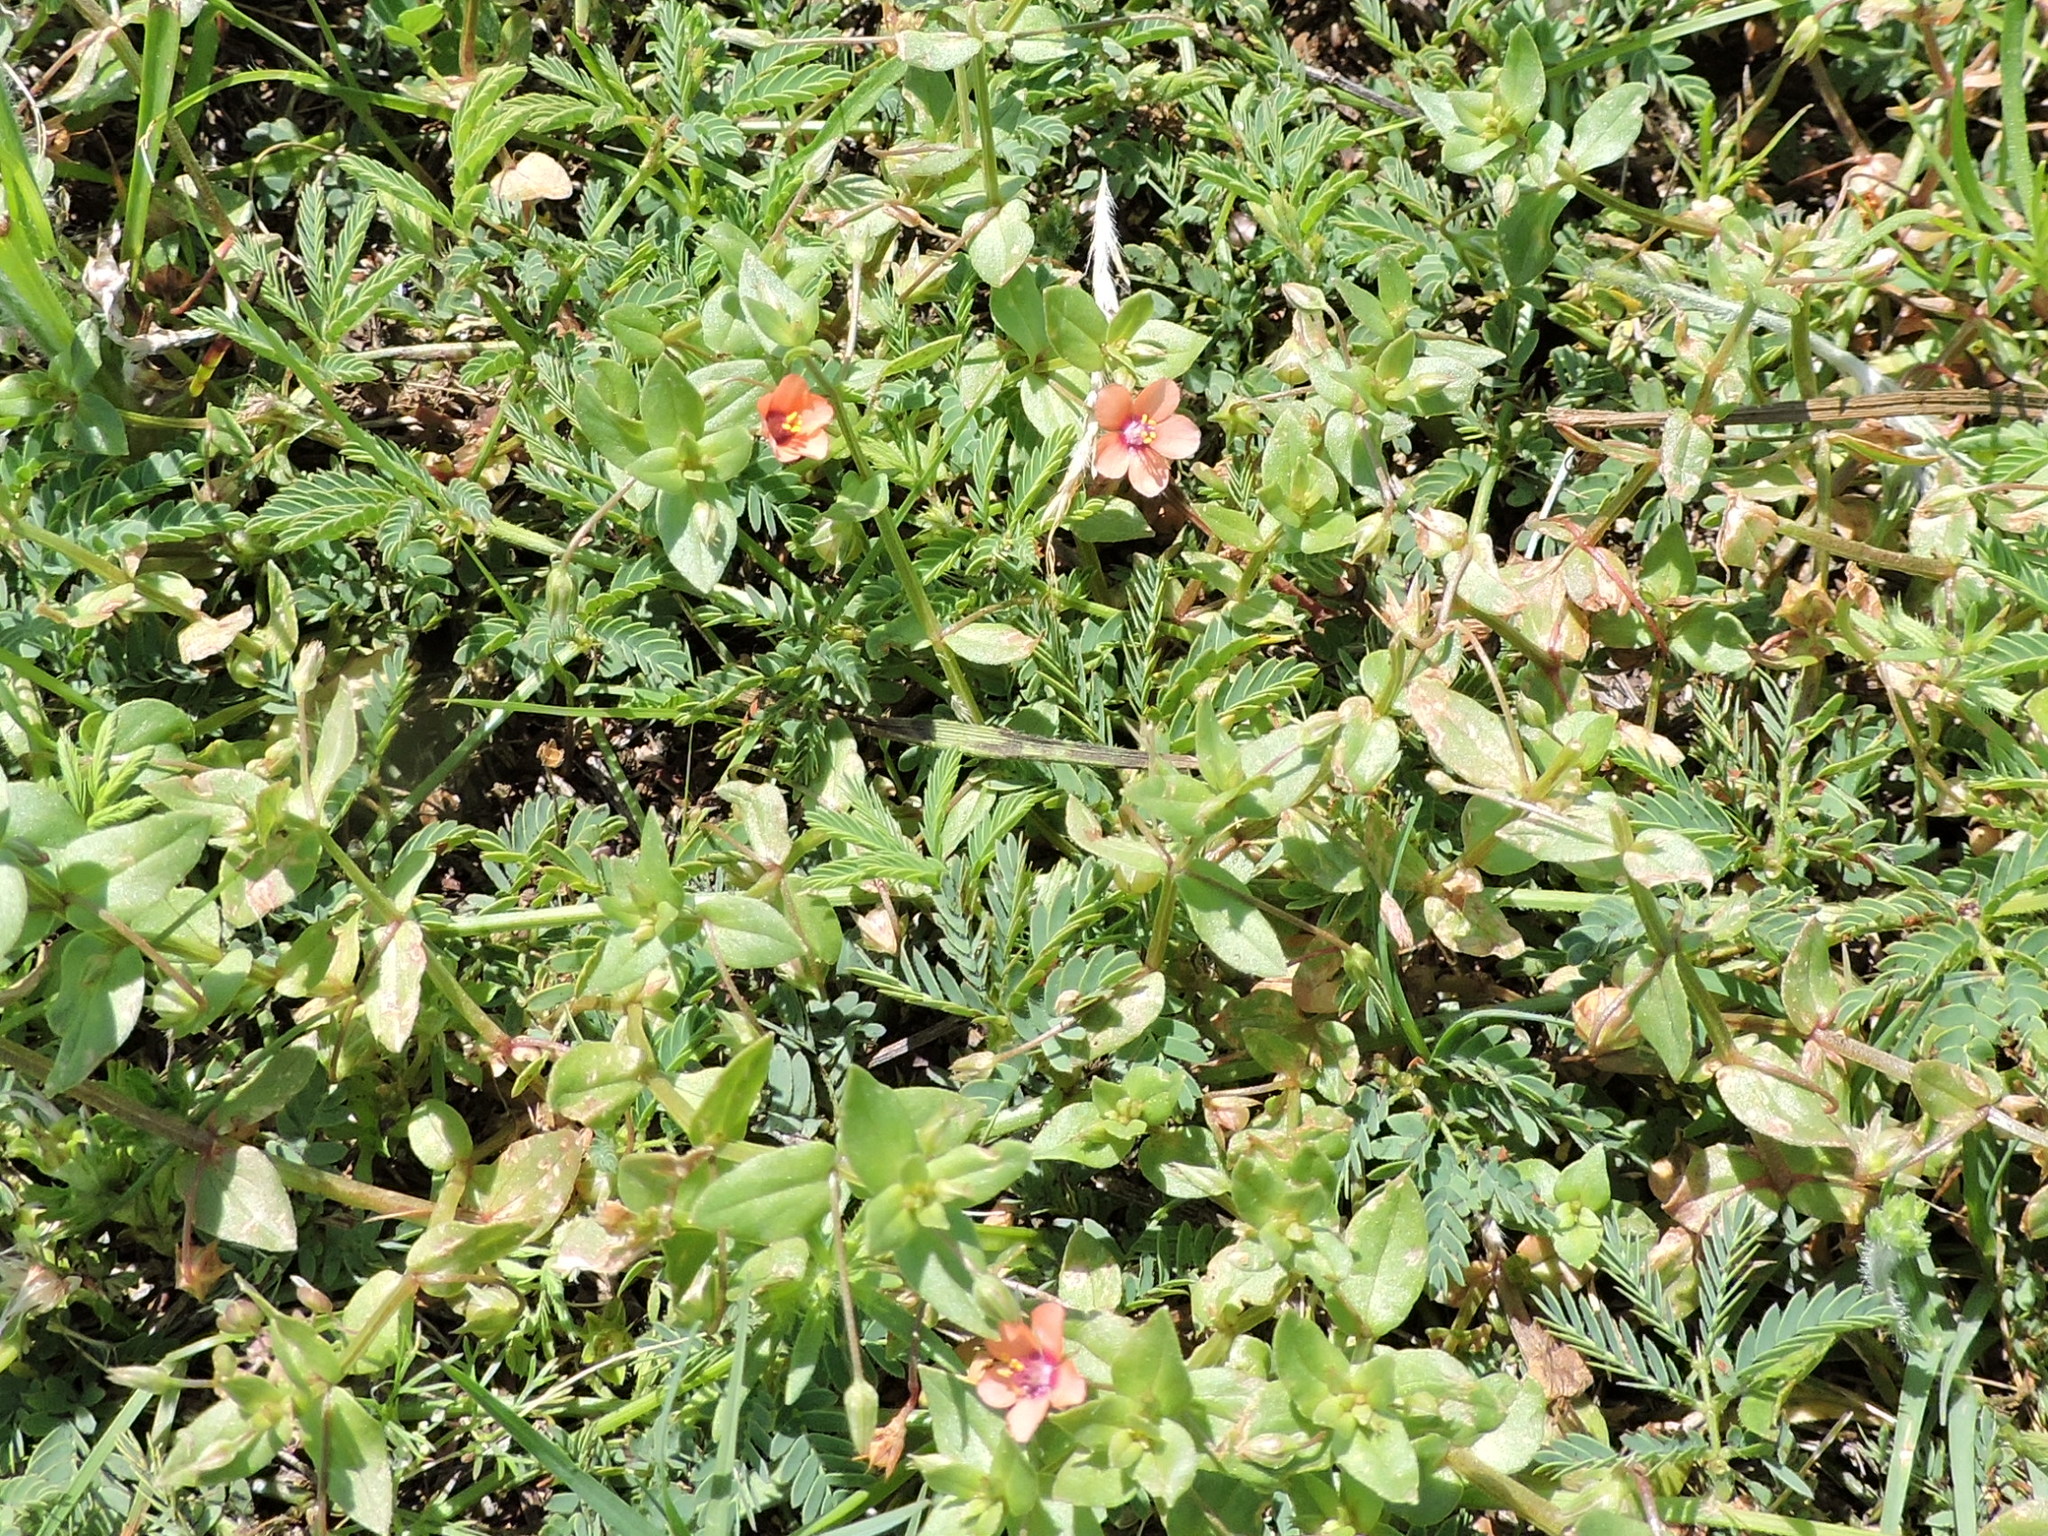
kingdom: Plantae
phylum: Tracheophyta
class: Magnoliopsida
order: Ericales
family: Primulaceae
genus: Lysimachia
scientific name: Lysimachia arvensis
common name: Scarlet pimpernel
